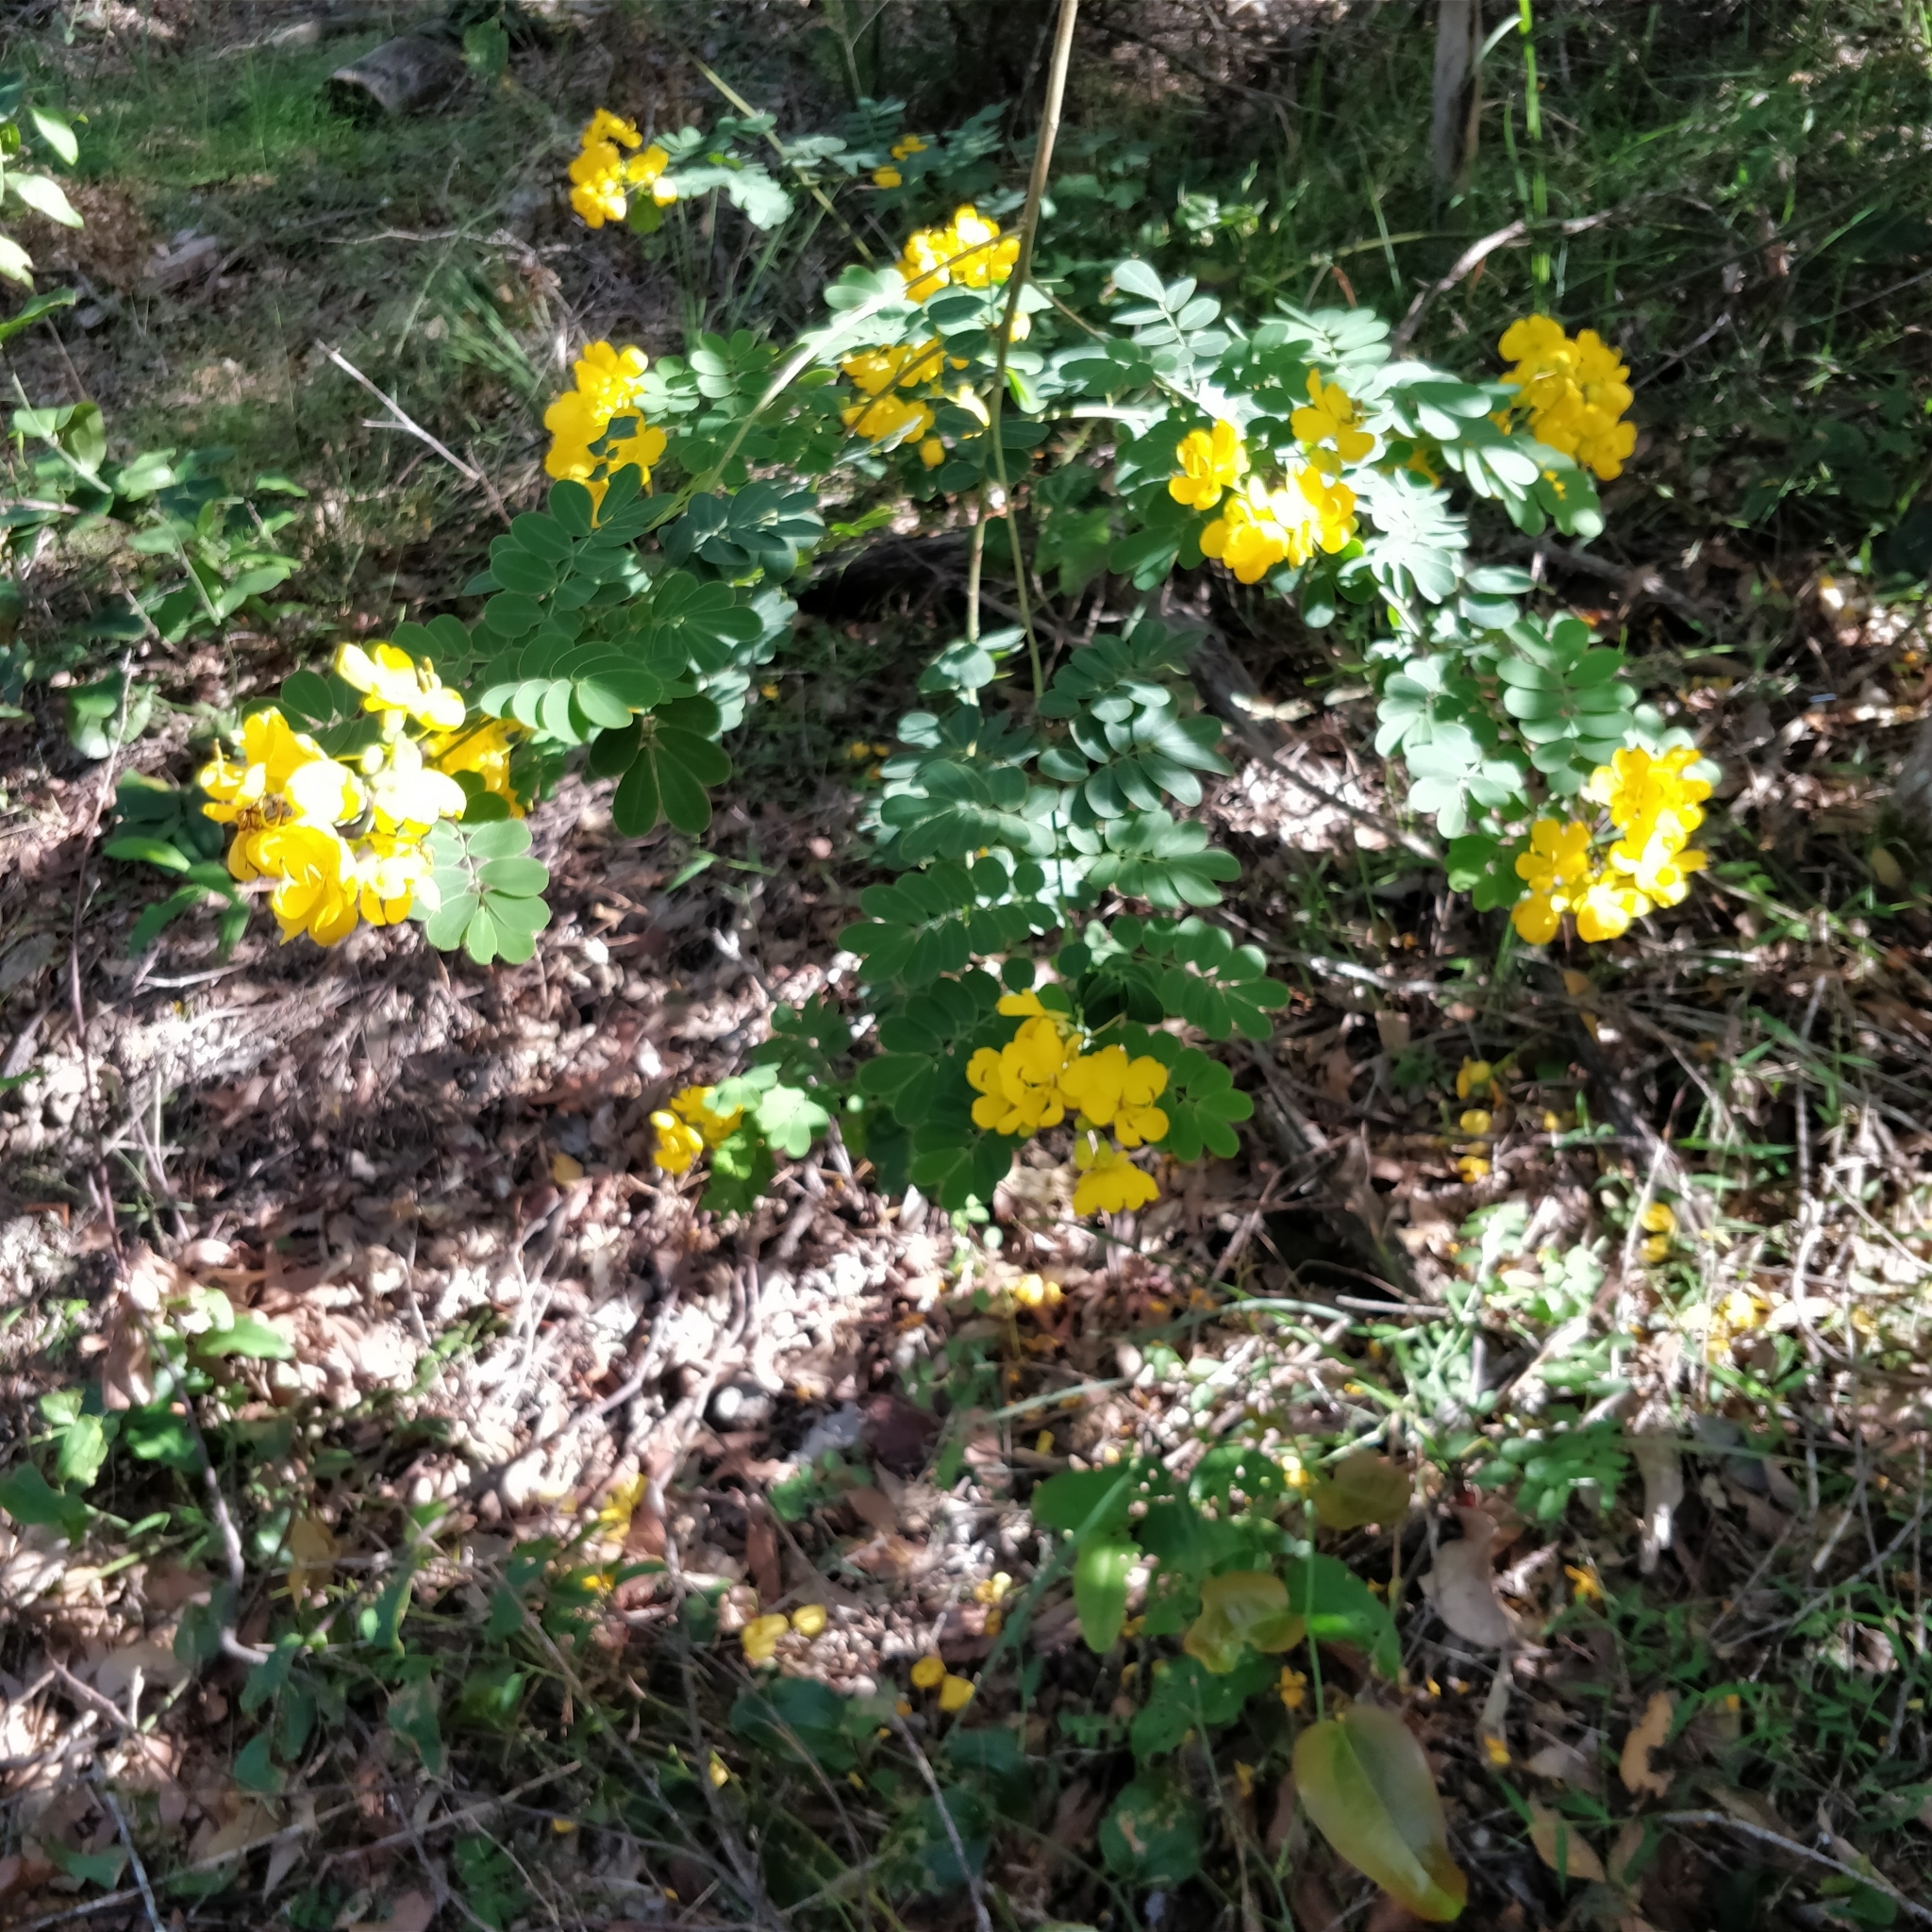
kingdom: Plantae
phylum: Tracheophyta
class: Magnoliopsida
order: Fabales
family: Fabaceae
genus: Senna
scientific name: Senna pendula
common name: Easter cassia
